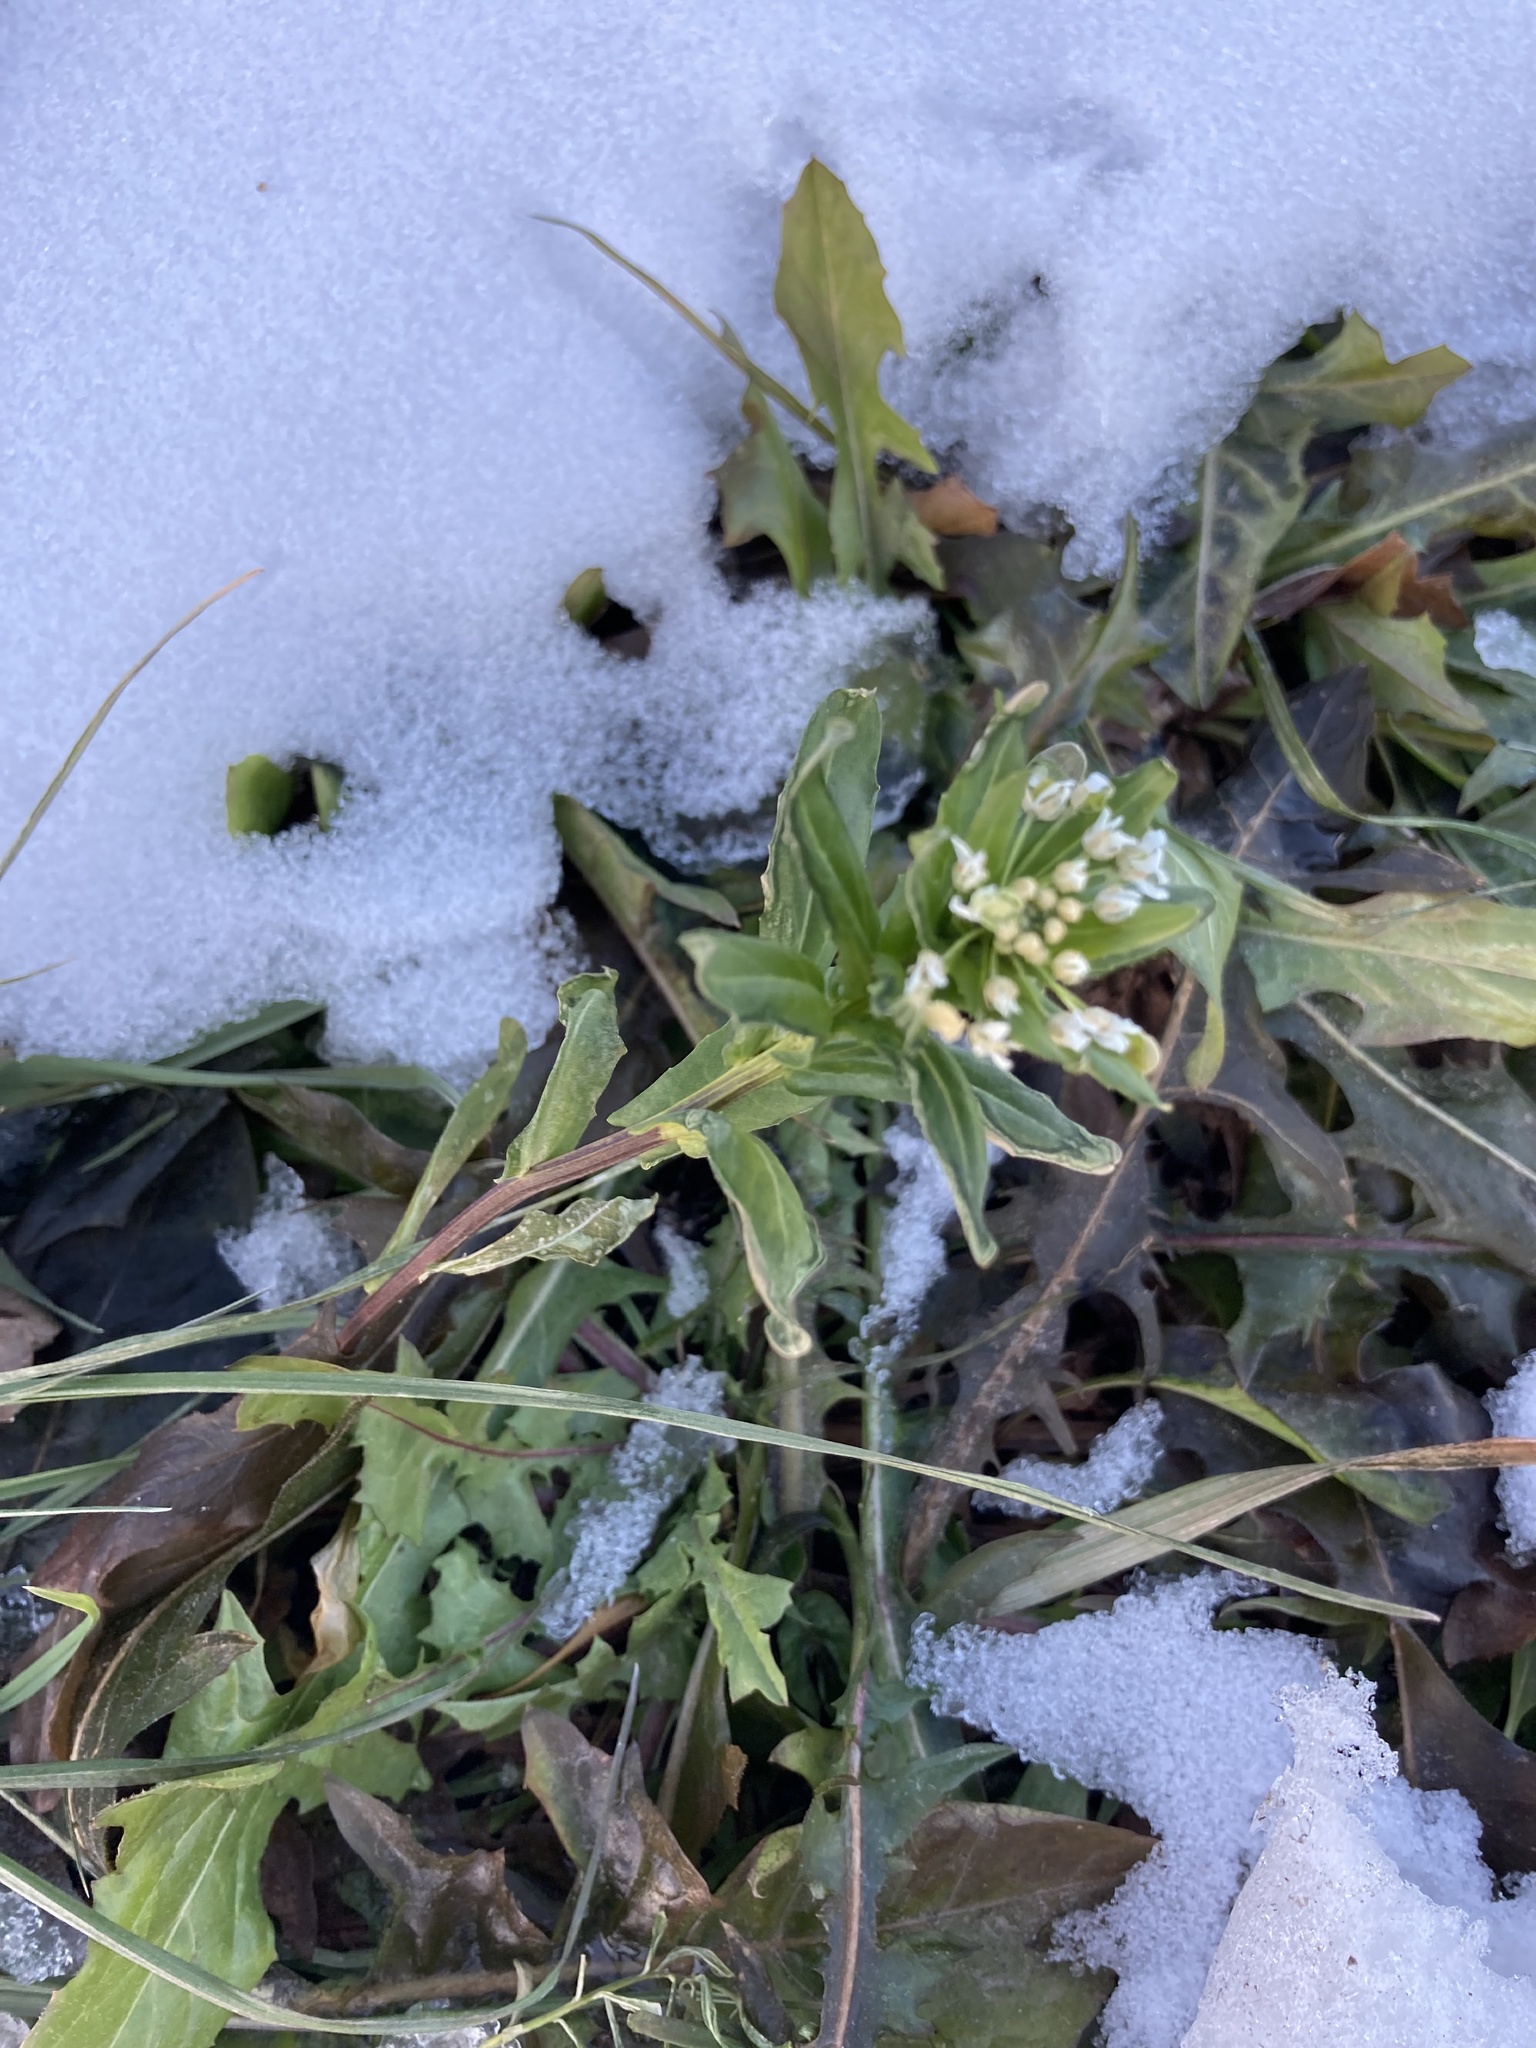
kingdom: Plantae
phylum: Tracheophyta
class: Magnoliopsida
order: Brassicales
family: Brassicaceae
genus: Thlaspi
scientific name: Thlaspi arvense
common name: Field pennycress
